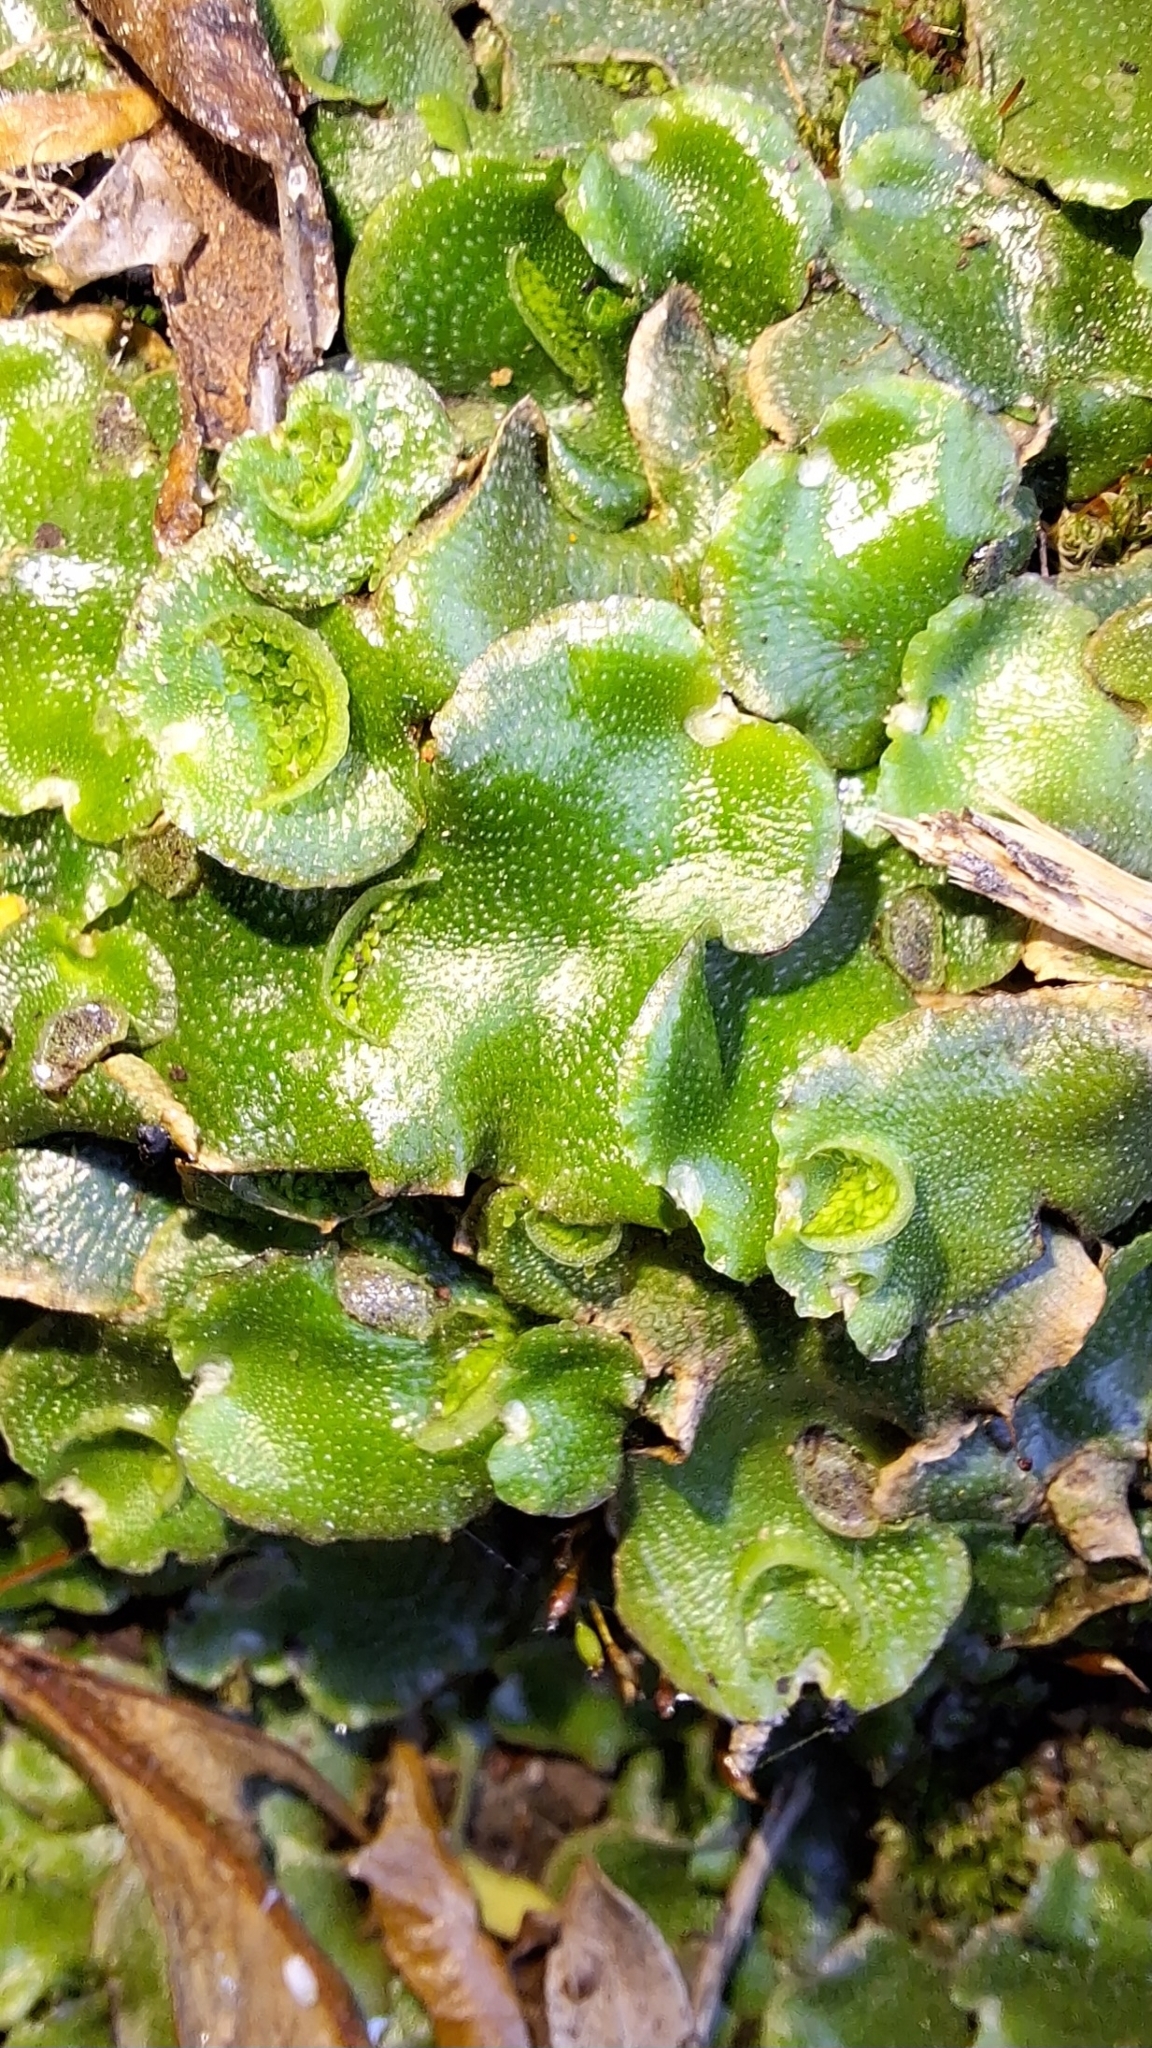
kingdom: Plantae
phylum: Marchantiophyta
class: Marchantiopsida
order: Lunulariales
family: Lunulariaceae
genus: Lunularia
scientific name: Lunularia cruciata
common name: Crescent-cup liverwort
